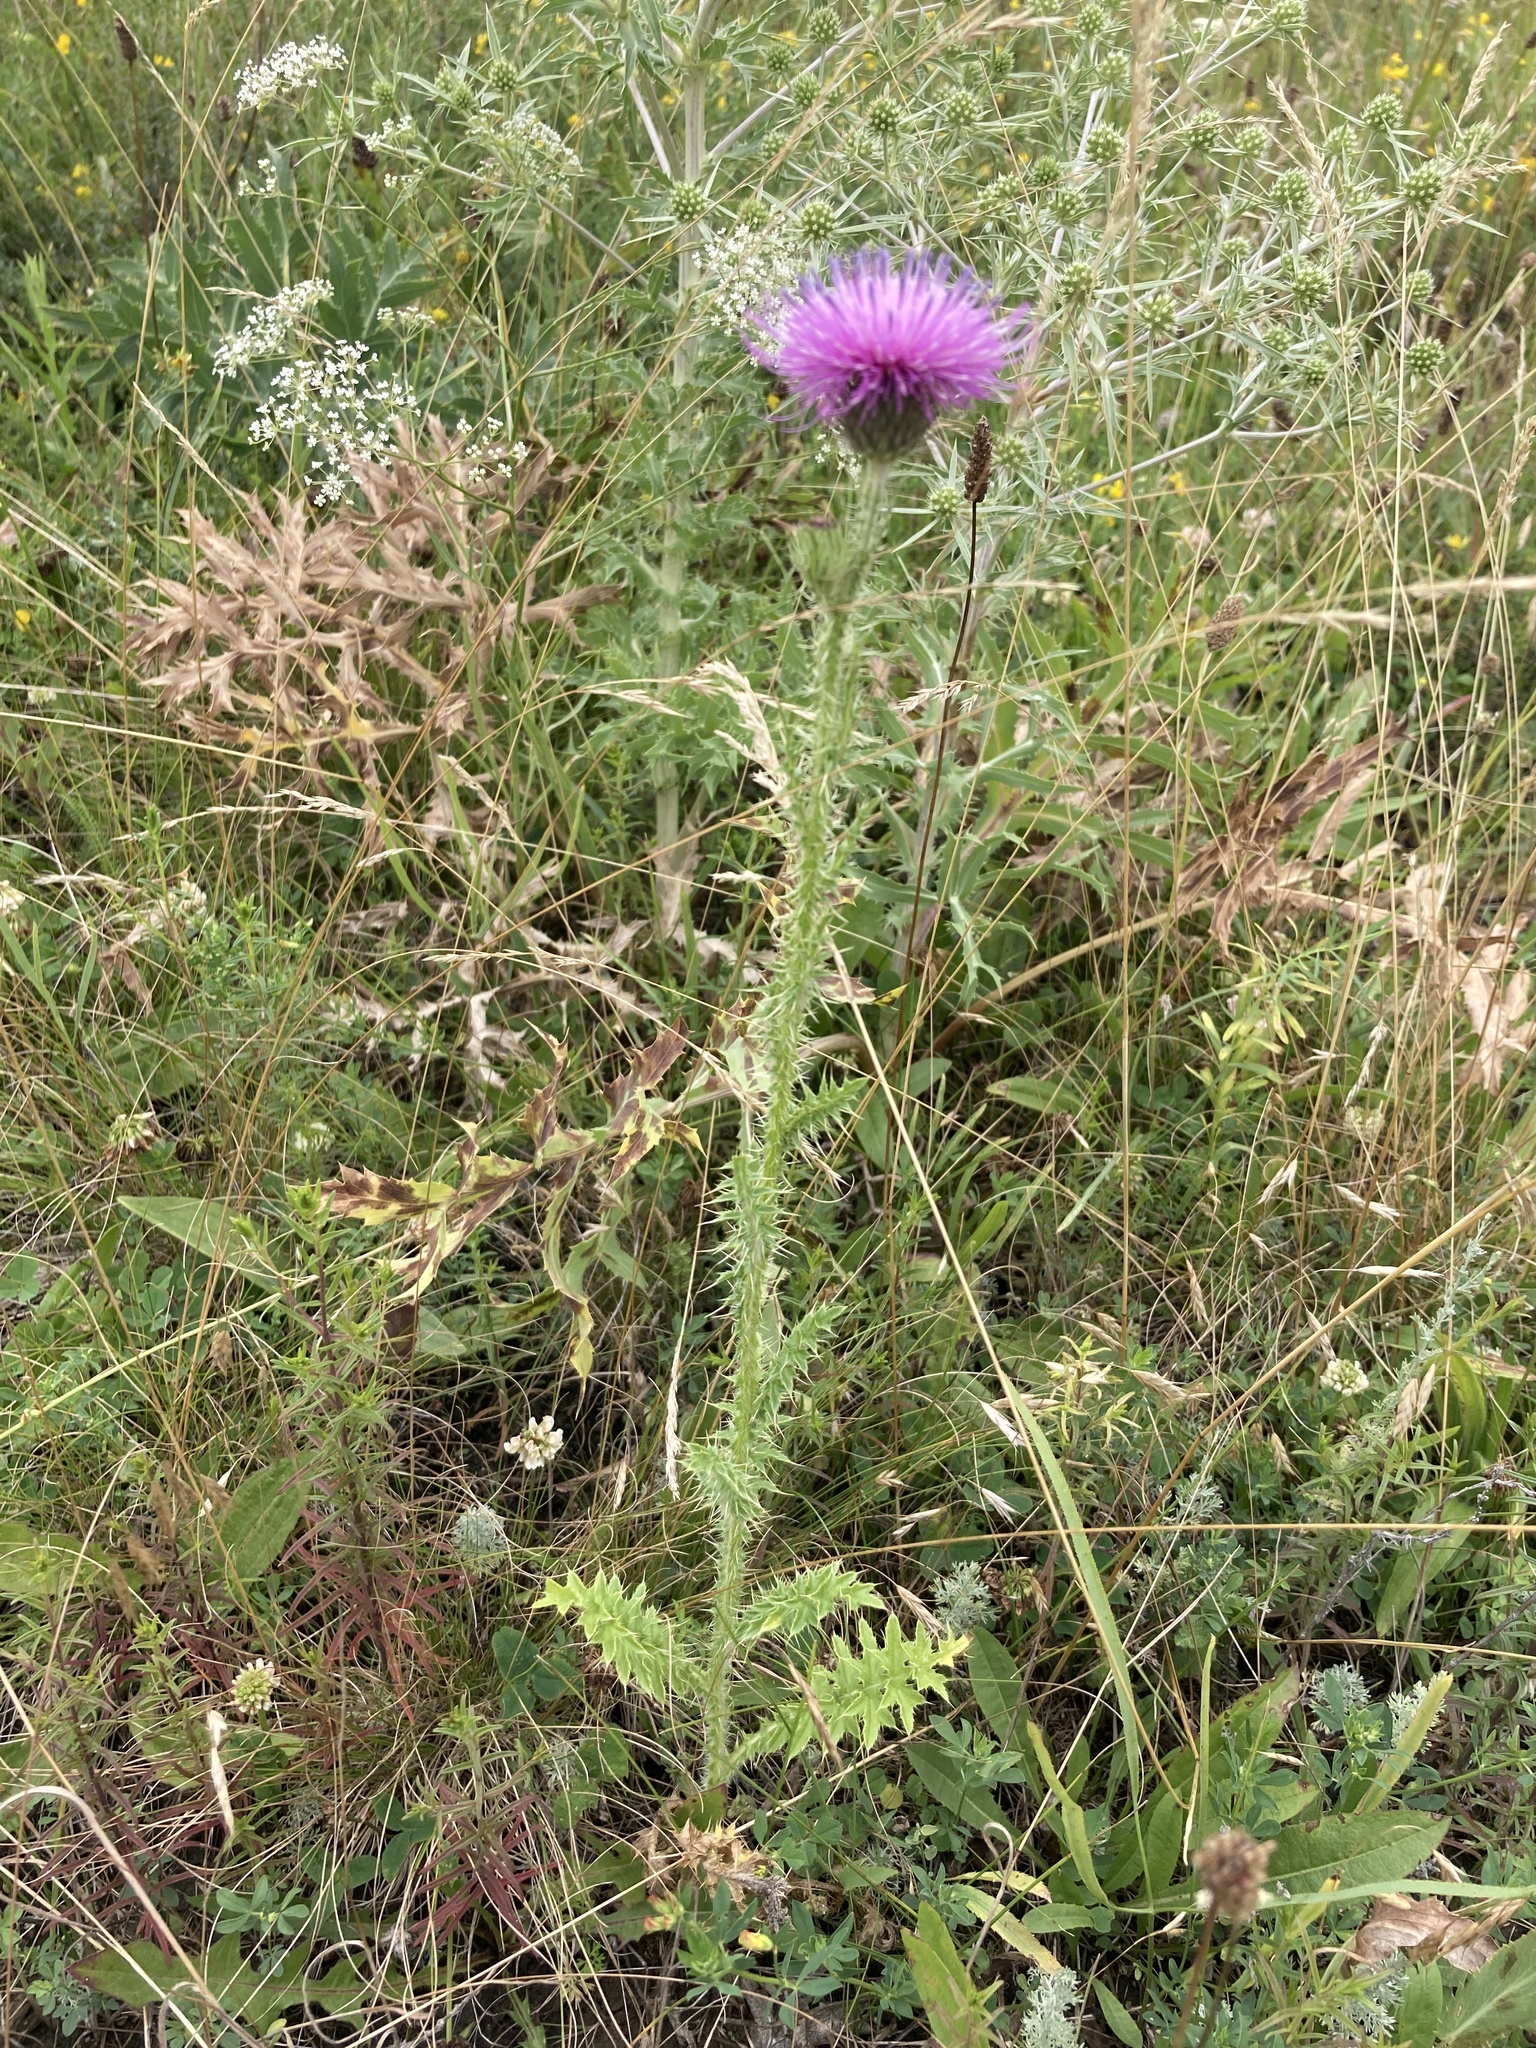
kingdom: Plantae
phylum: Tracheophyta
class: Magnoliopsida
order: Asterales
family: Asteraceae
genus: Carduus
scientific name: Carduus acanthoides
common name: Plumeless thistle
